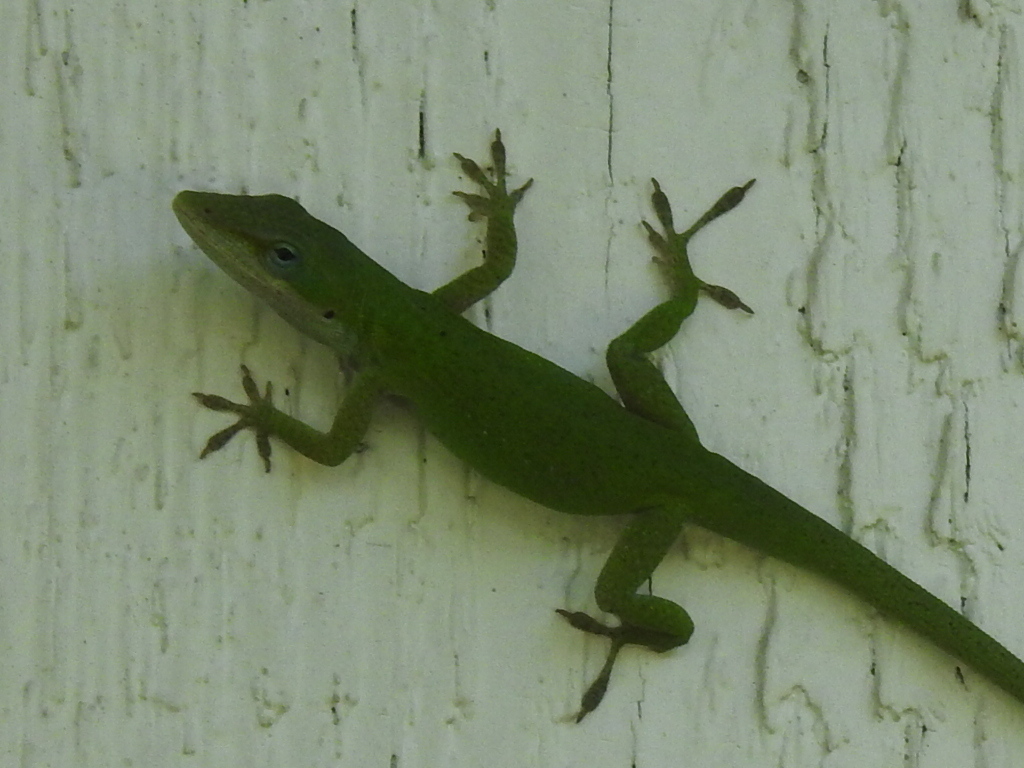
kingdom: Animalia
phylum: Chordata
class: Squamata
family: Dactyloidae
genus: Anolis
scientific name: Anolis carolinensis
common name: Green anole
